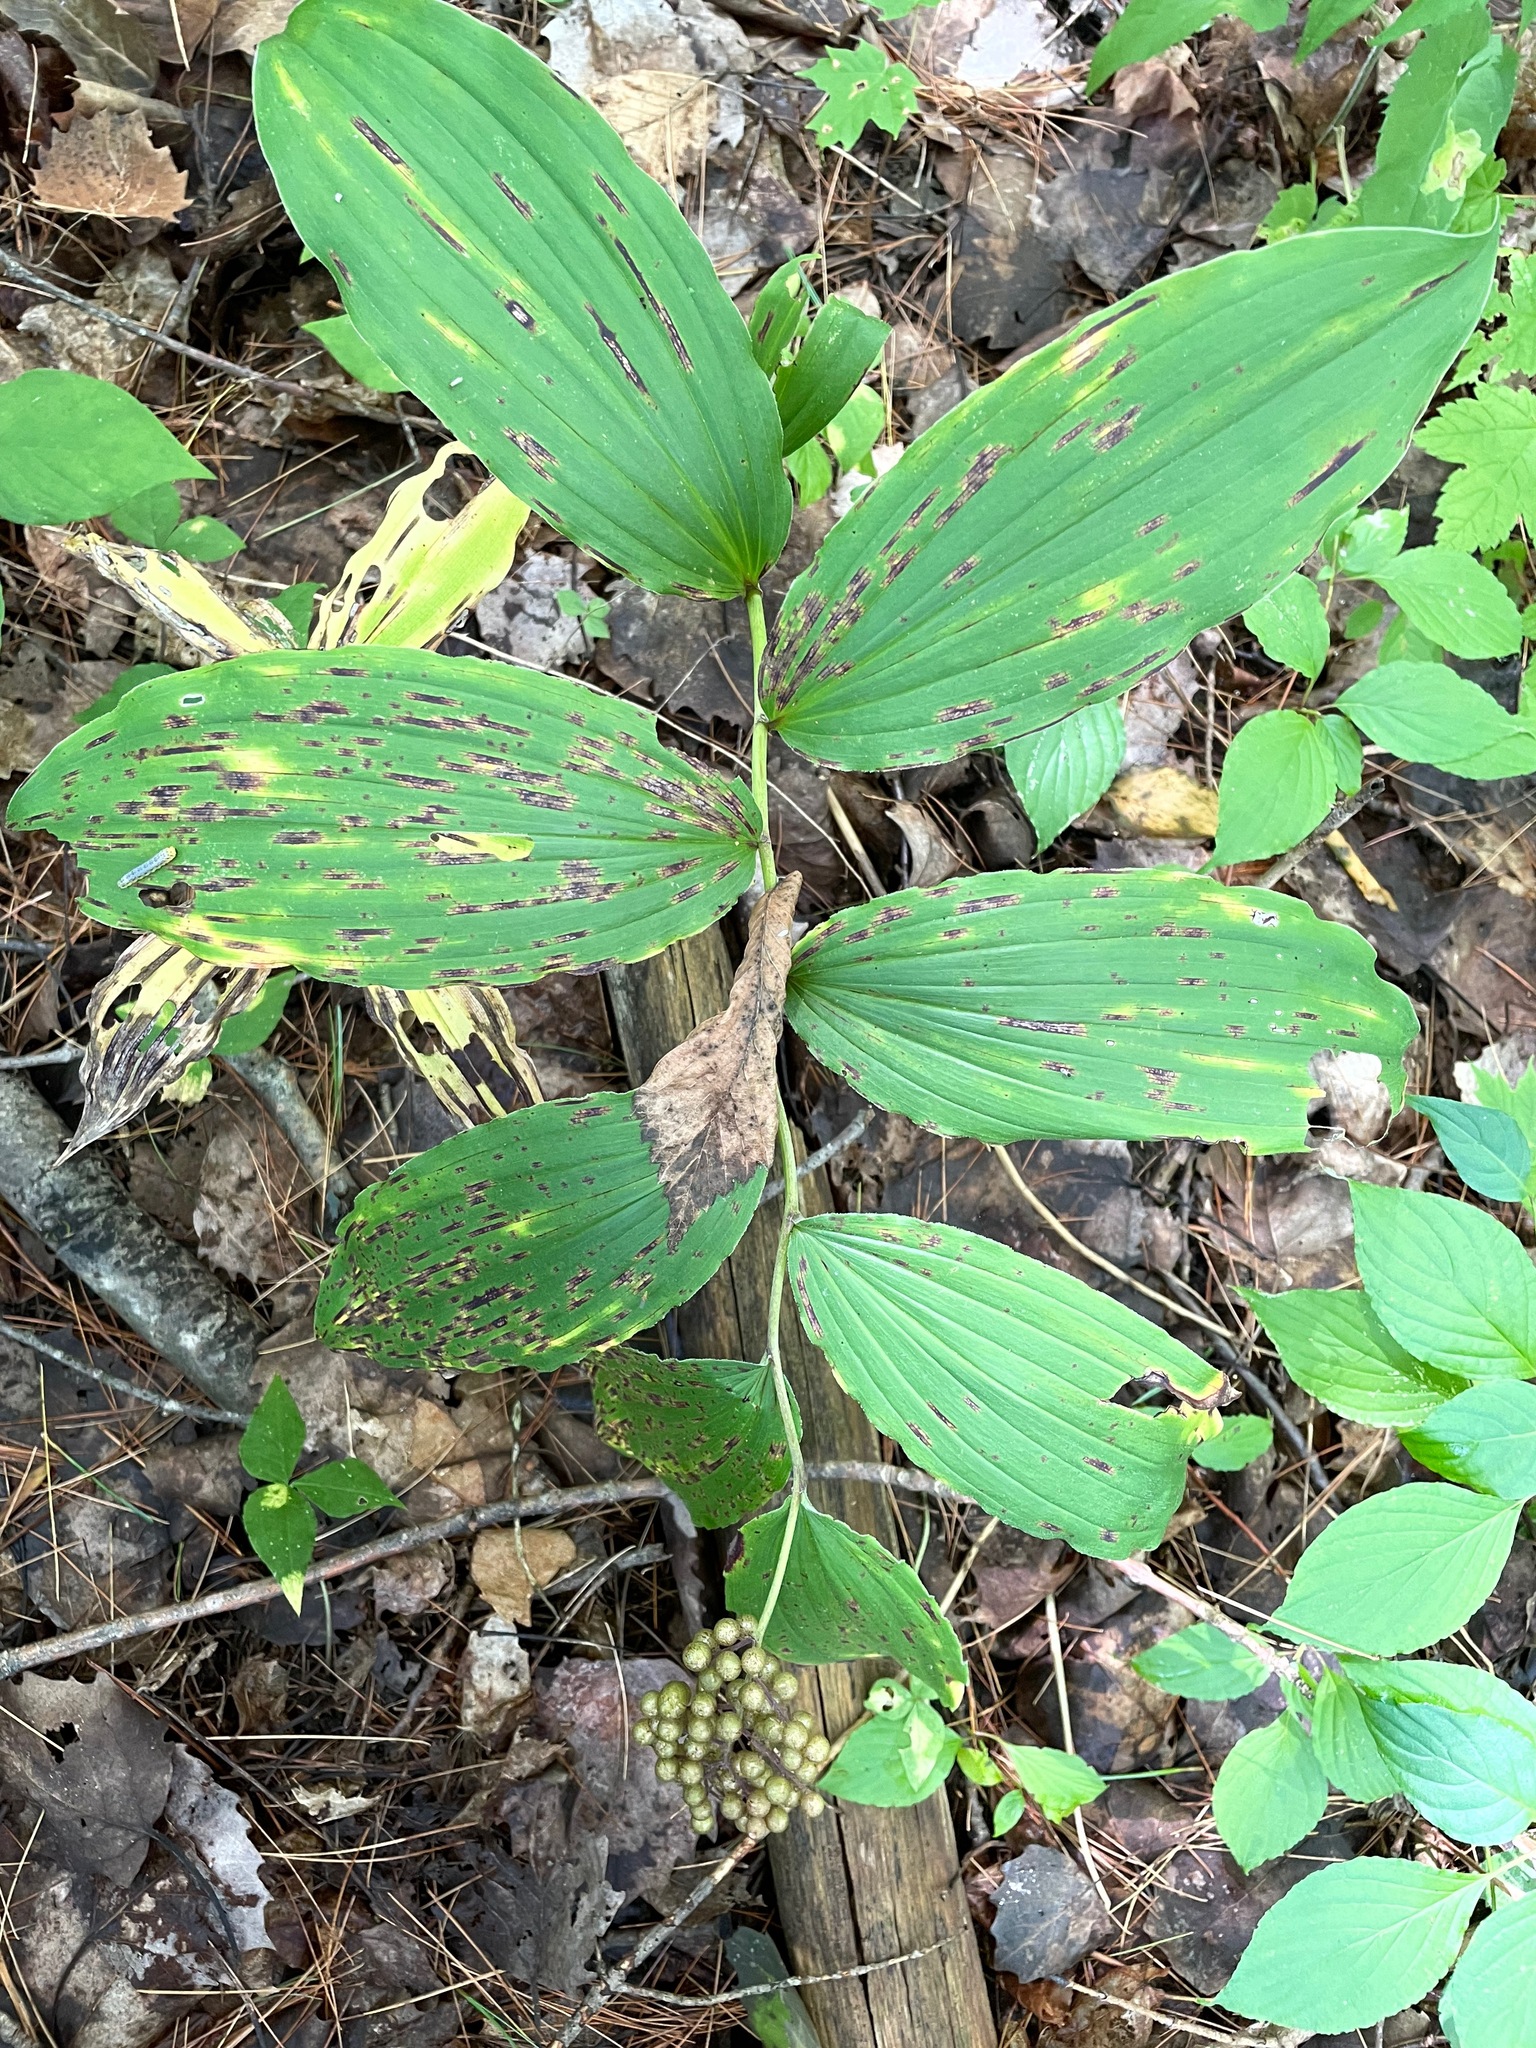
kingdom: Plantae
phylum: Tracheophyta
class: Liliopsida
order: Asparagales
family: Asparagaceae
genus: Maianthemum
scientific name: Maianthemum racemosum
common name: False spikenard
